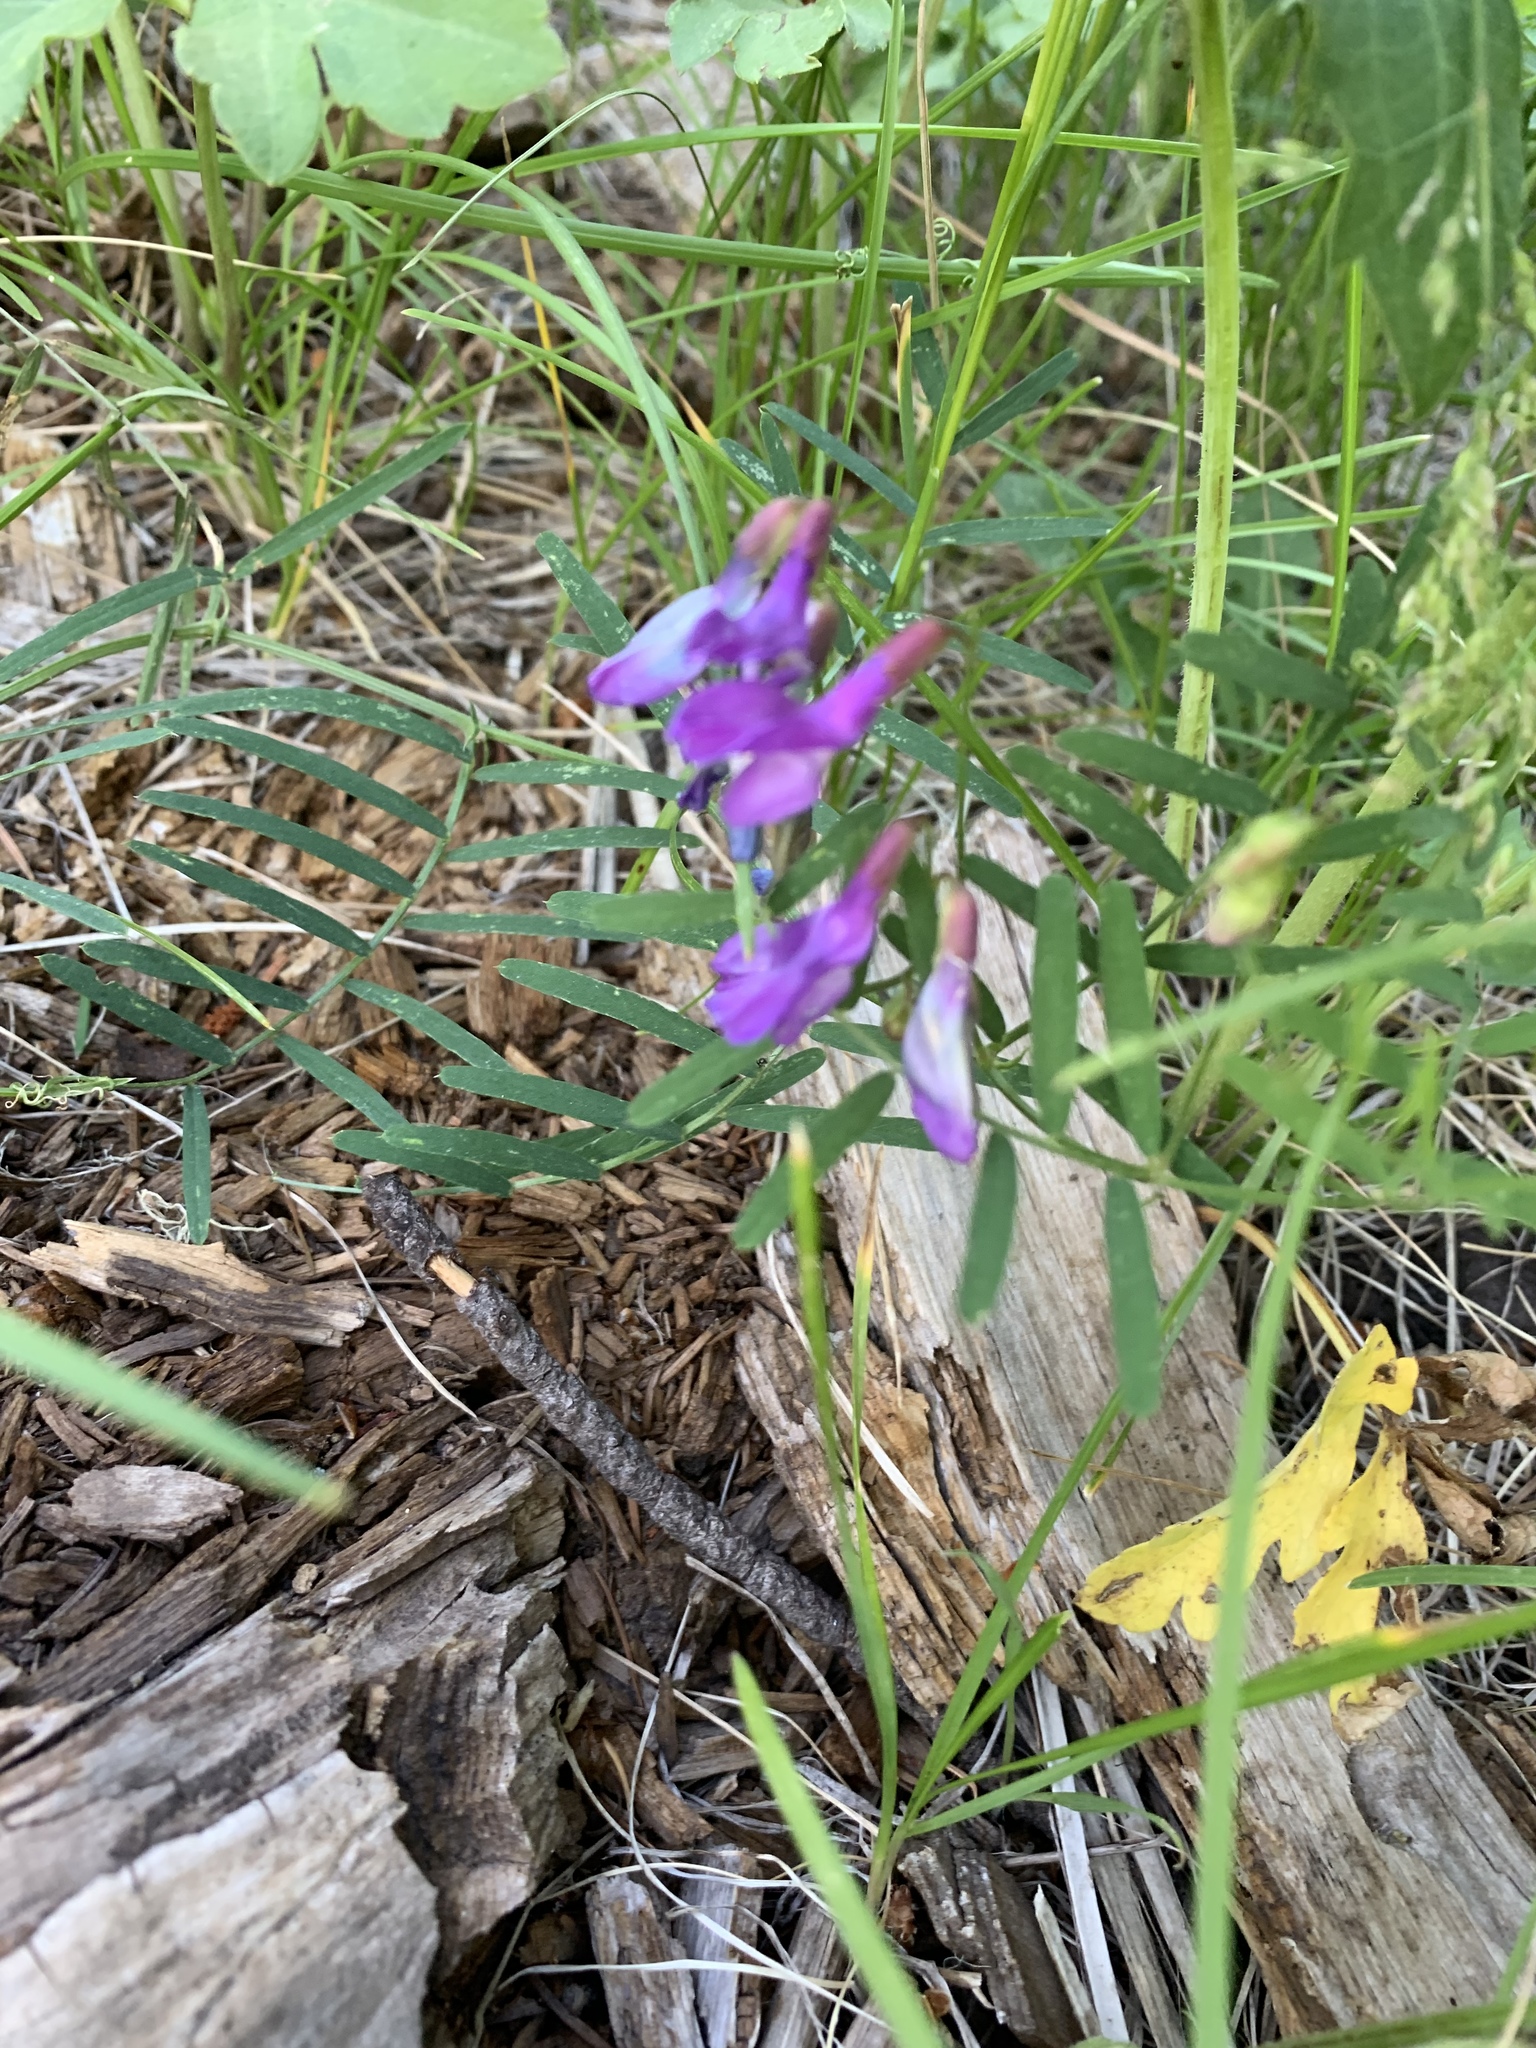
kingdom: Plantae
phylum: Tracheophyta
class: Magnoliopsida
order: Fabales
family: Fabaceae
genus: Vicia
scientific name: Vicia americana
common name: American vetch
